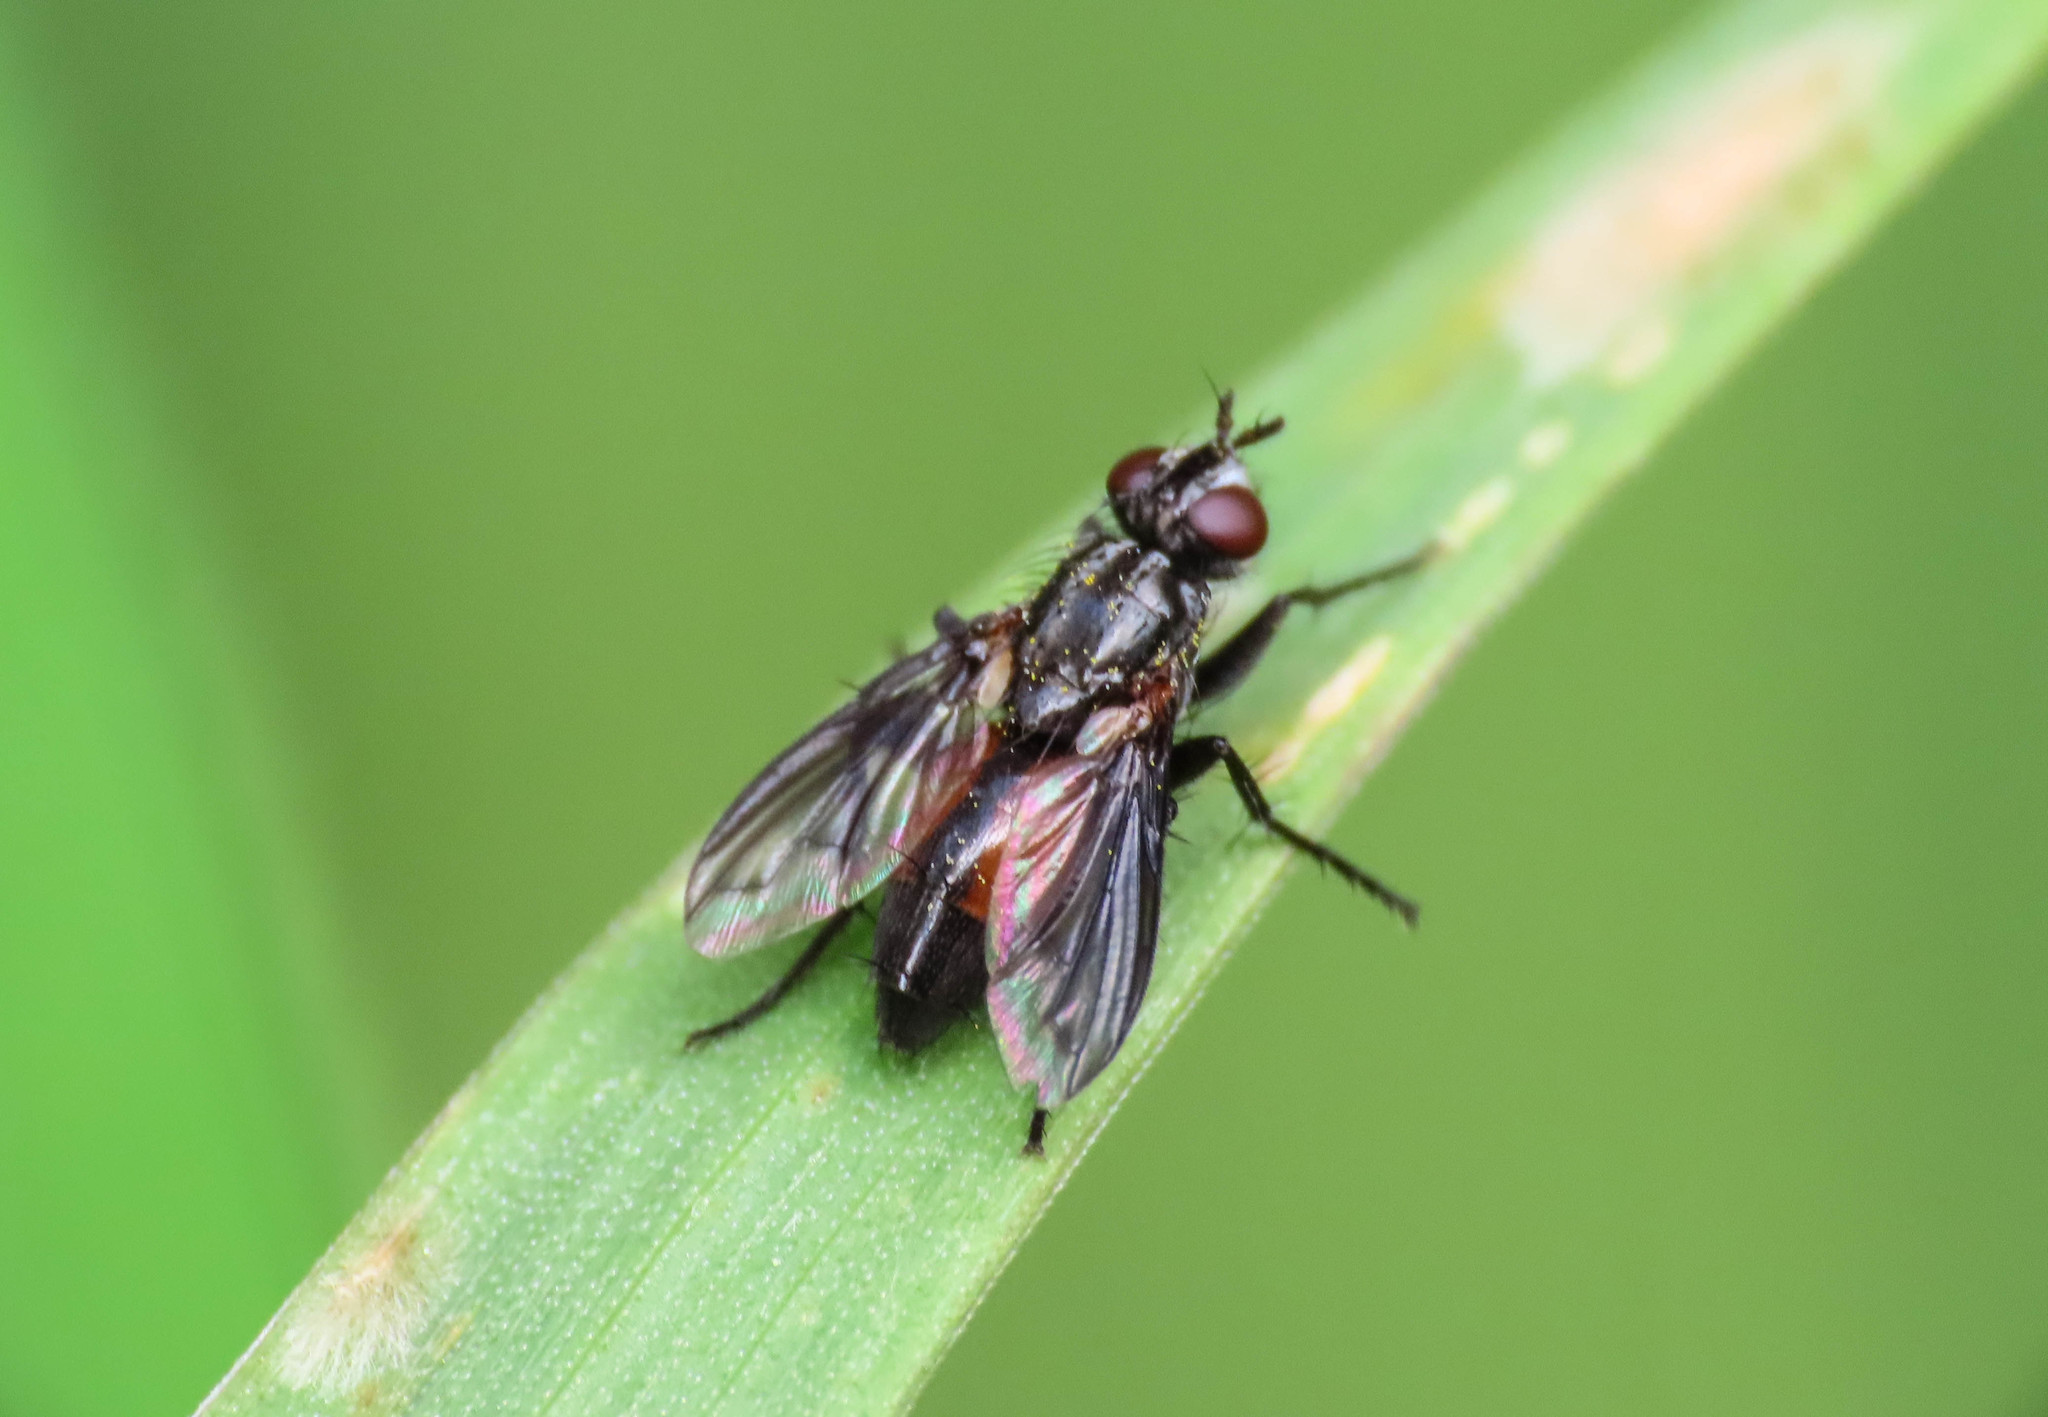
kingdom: Animalia
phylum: Arthropoda
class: Insecta
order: Diptera
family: Calliphoridae
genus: Stevenia
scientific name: Stevenia signata
